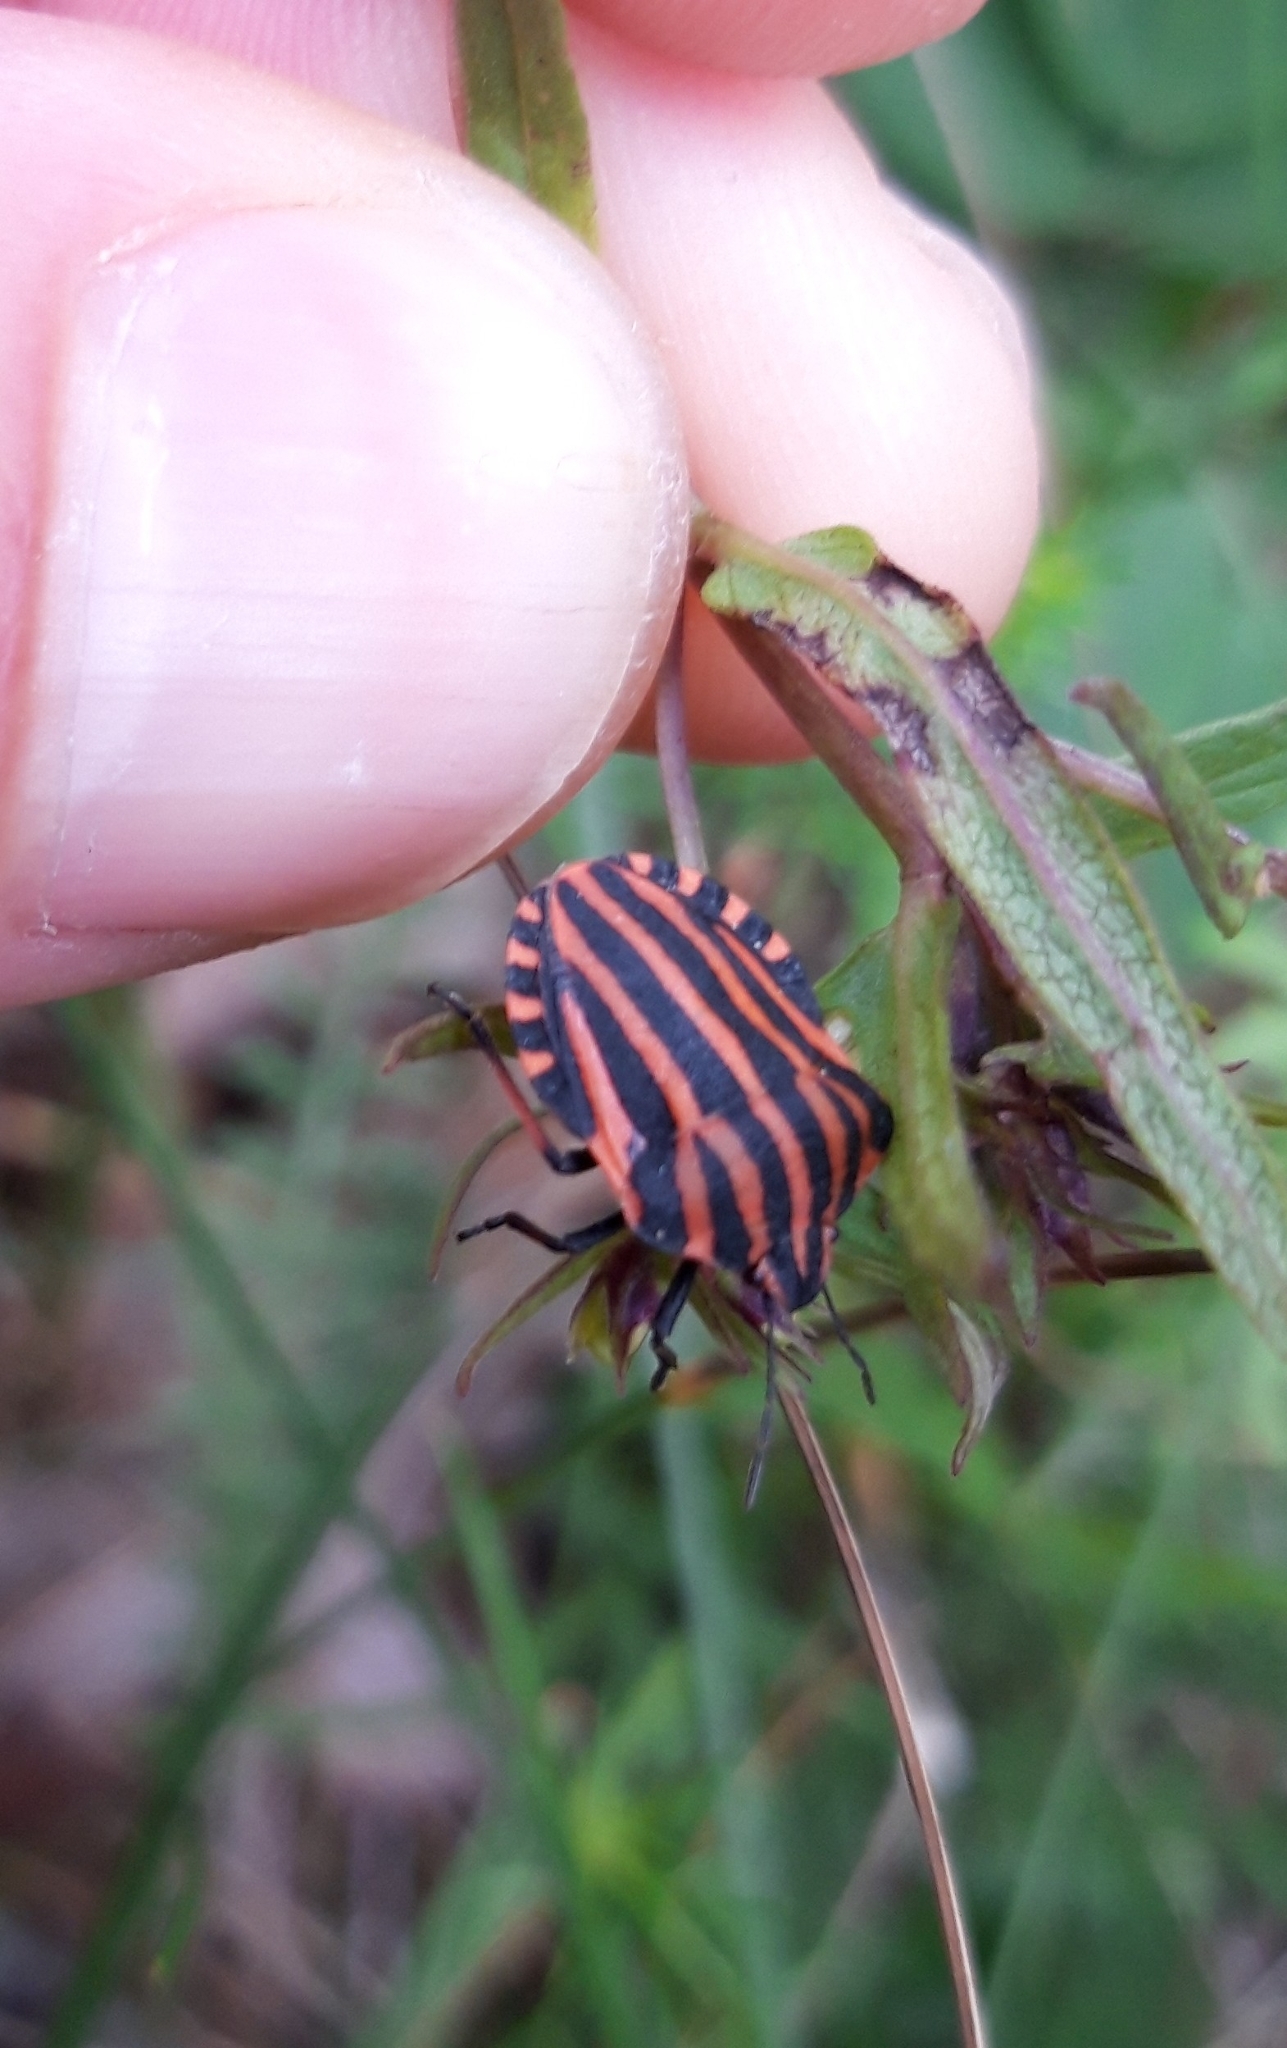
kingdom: Animalia
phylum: Arthropoda
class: Insecta
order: Hemiptera
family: Pentatomidae
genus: Graphosoma
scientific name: Graphosoma italicum
